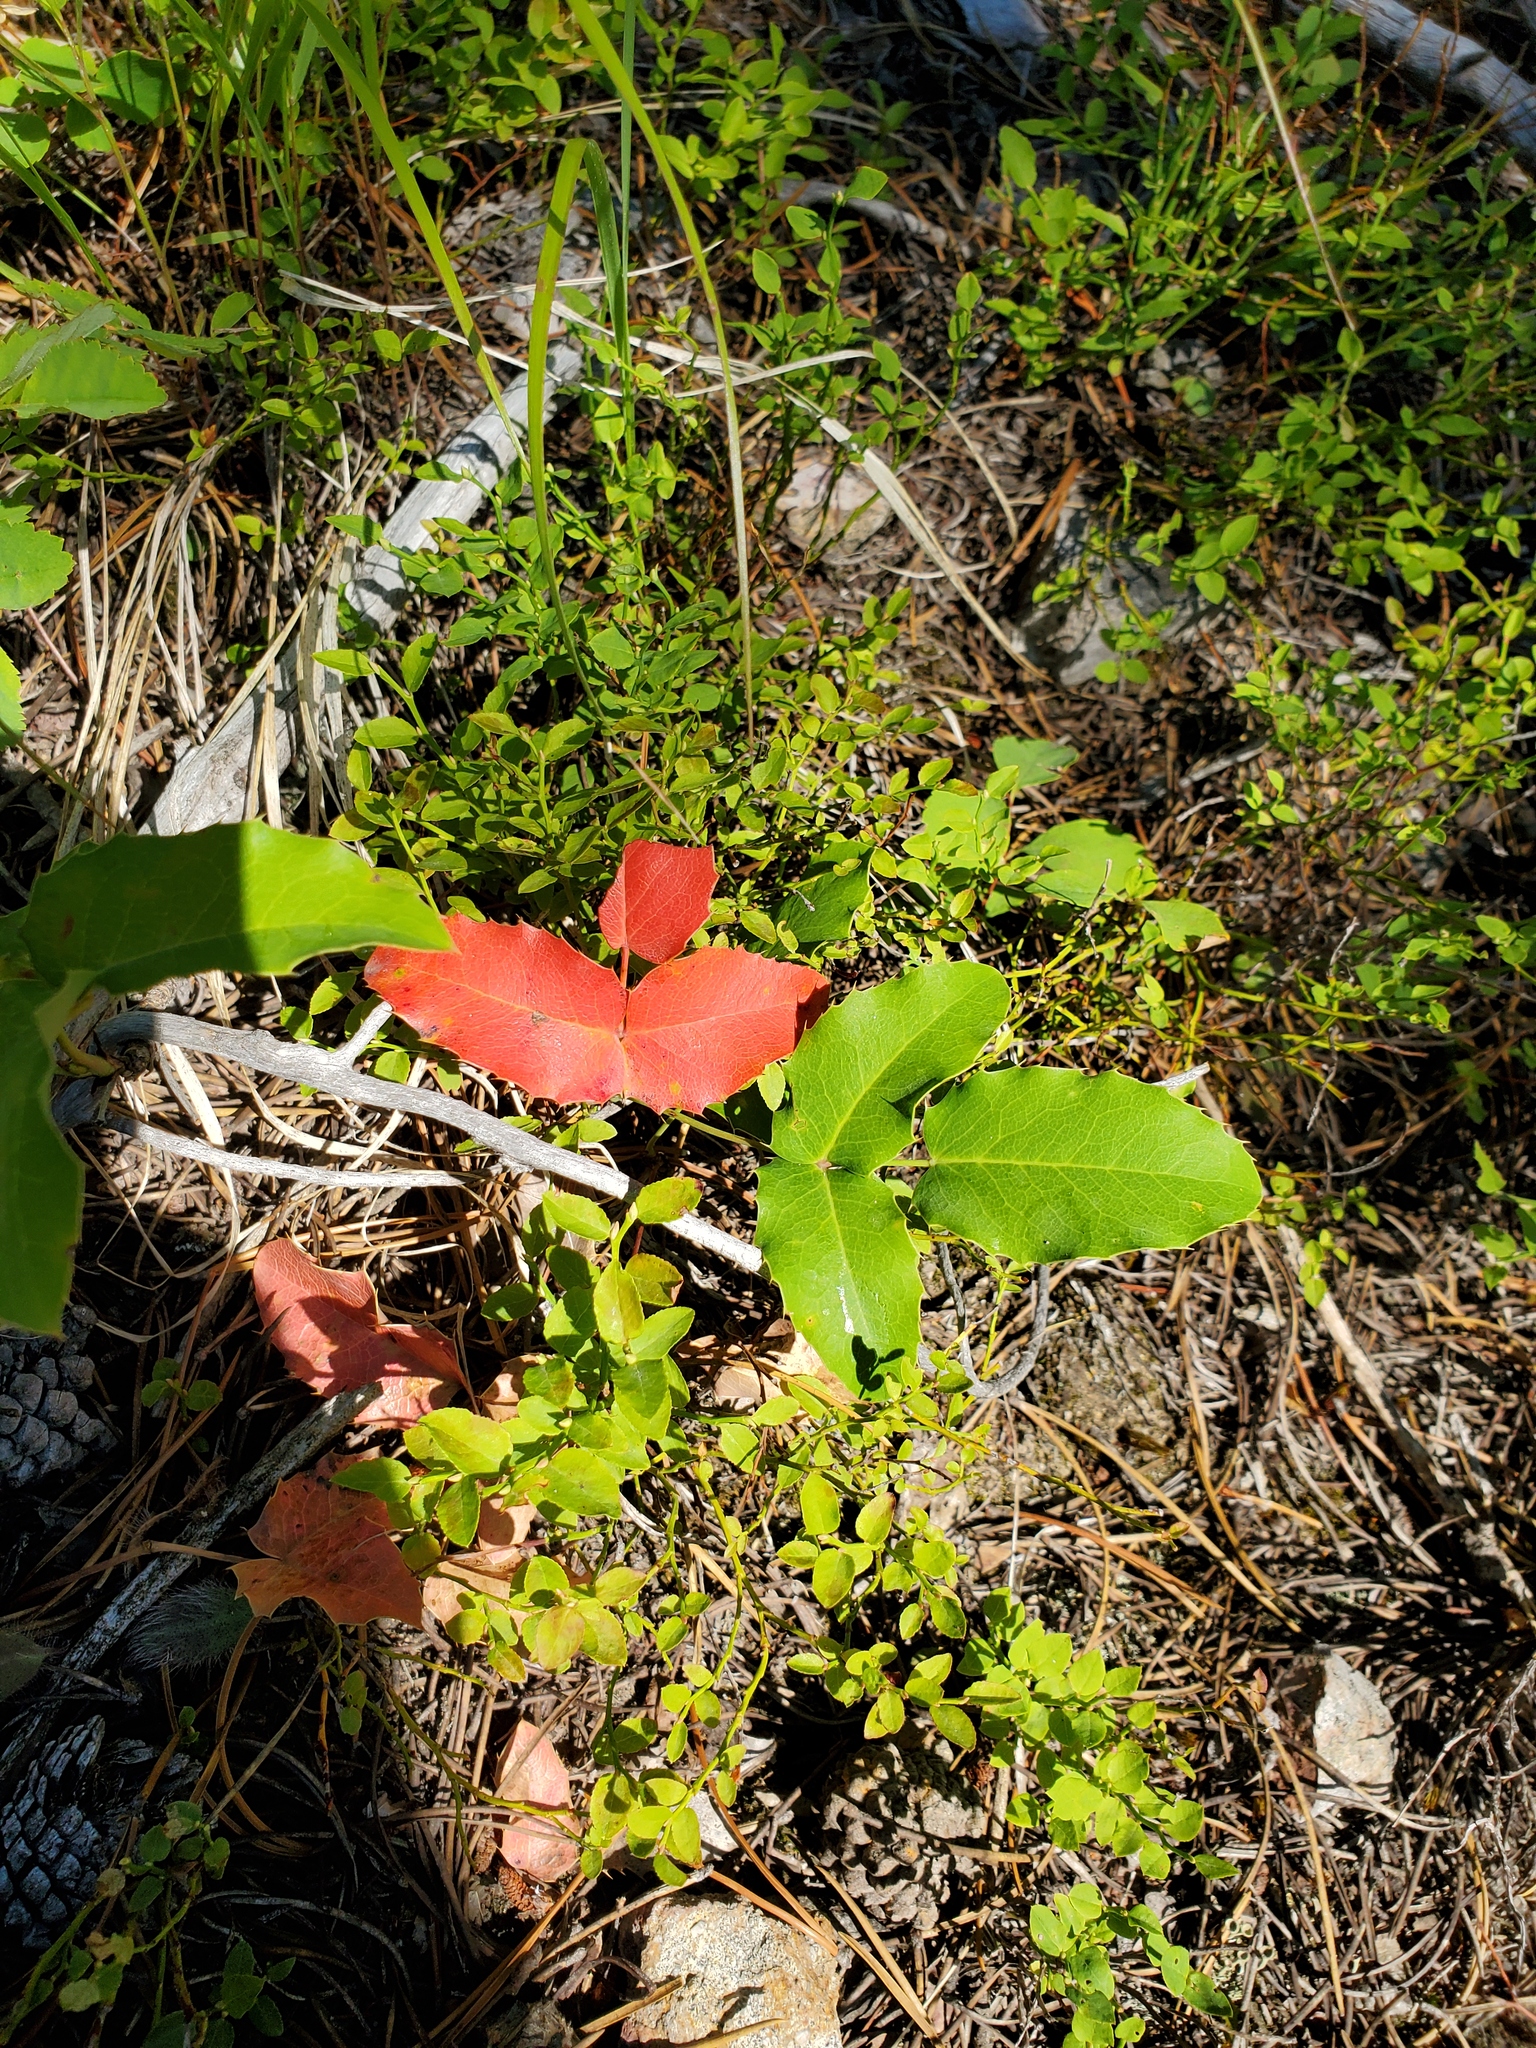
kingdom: Plantae
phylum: Tracheophyta
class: Magnoliopsida
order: Ranunculales
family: Berberidaceae
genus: Mahonia
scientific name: Mahonia repens
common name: Creeping oregon-grape
